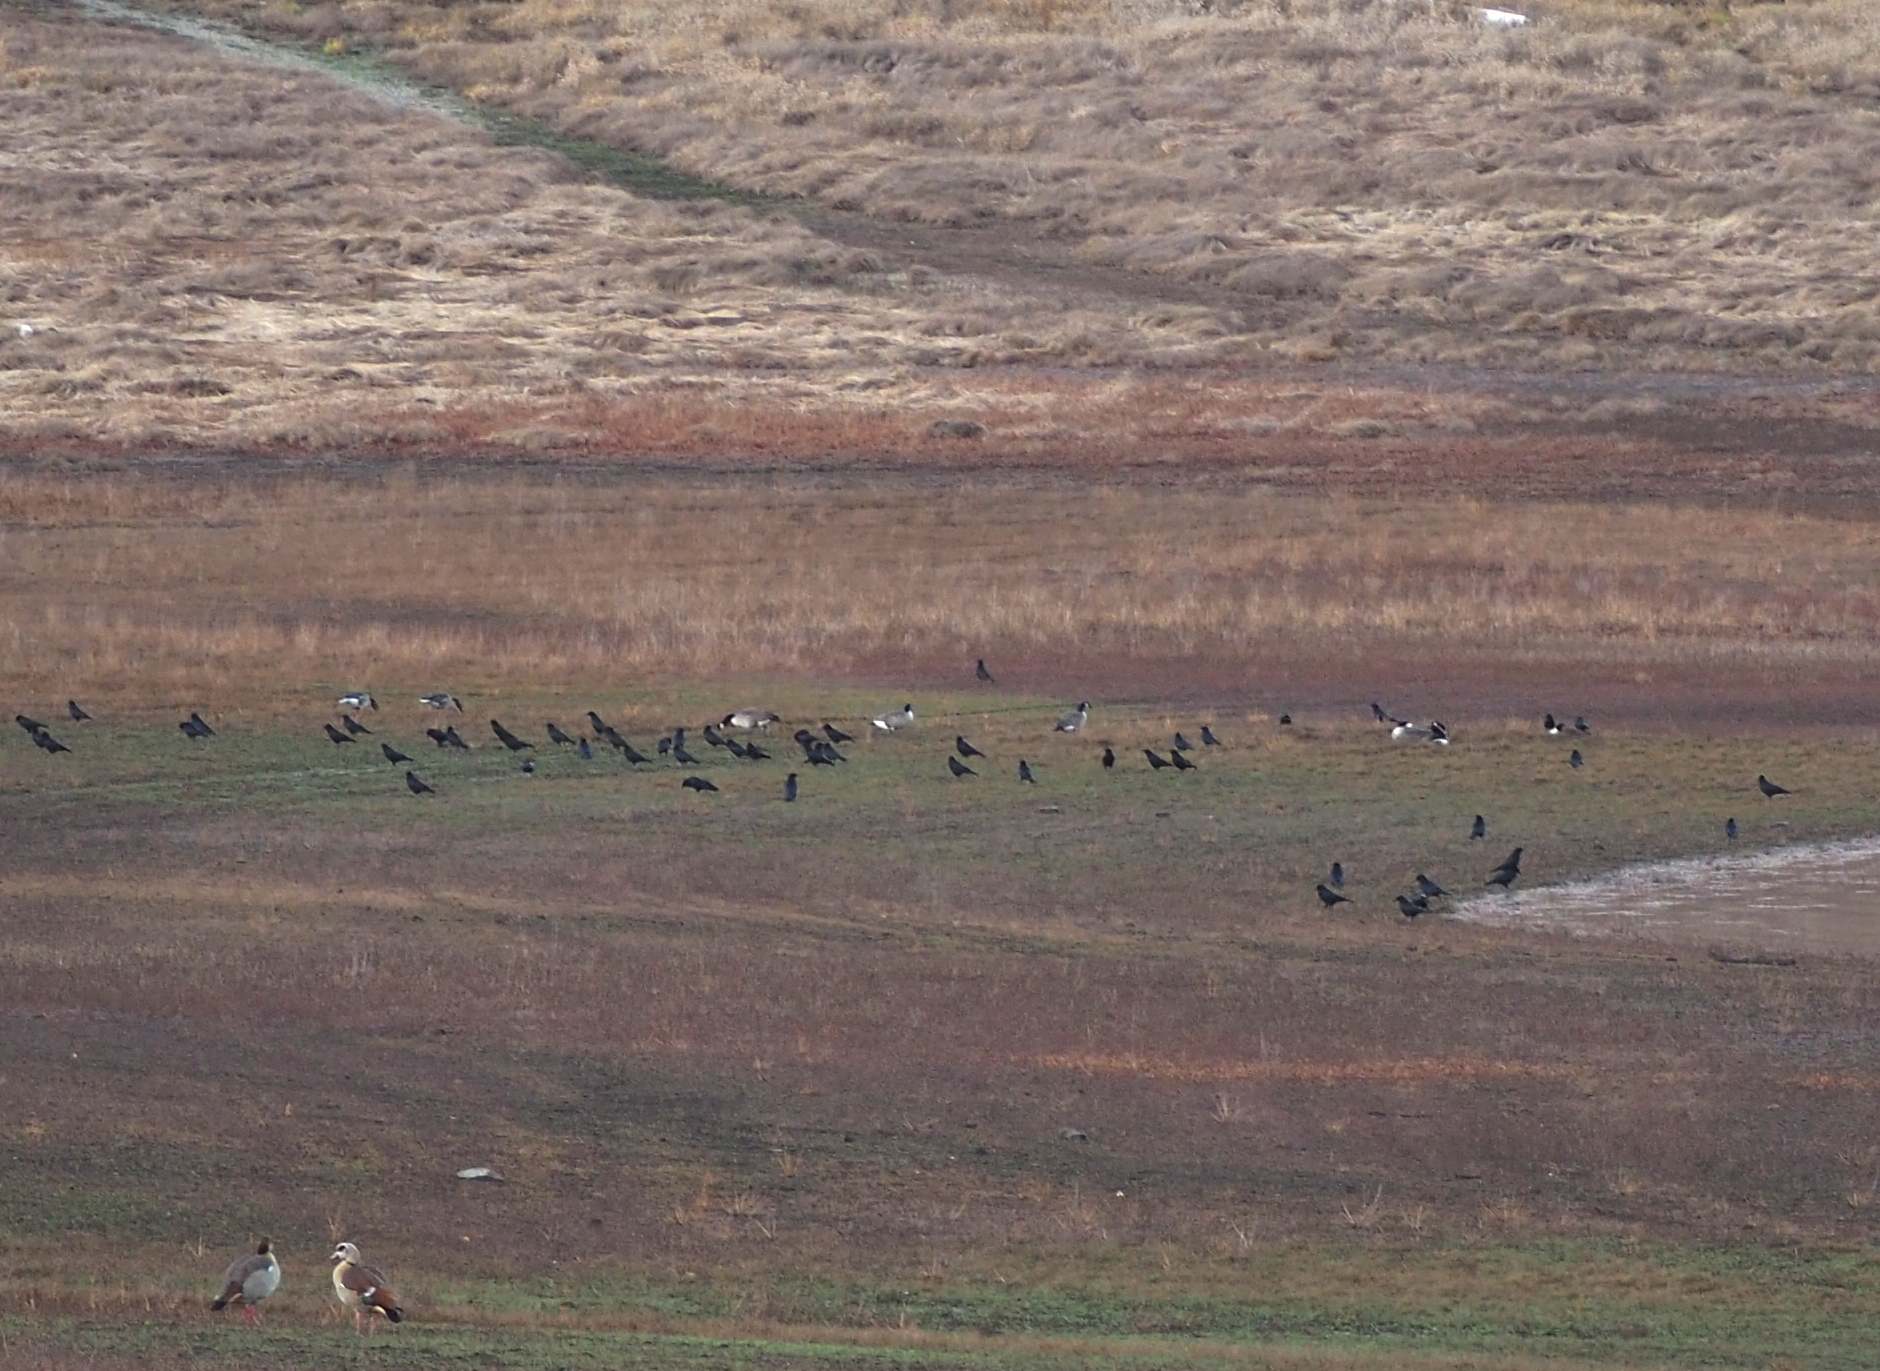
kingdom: Animalia
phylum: Chordata
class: Aves
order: Passeriformes
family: Corvidae
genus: Corvus
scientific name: Corvus corone
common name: Carrion crow
